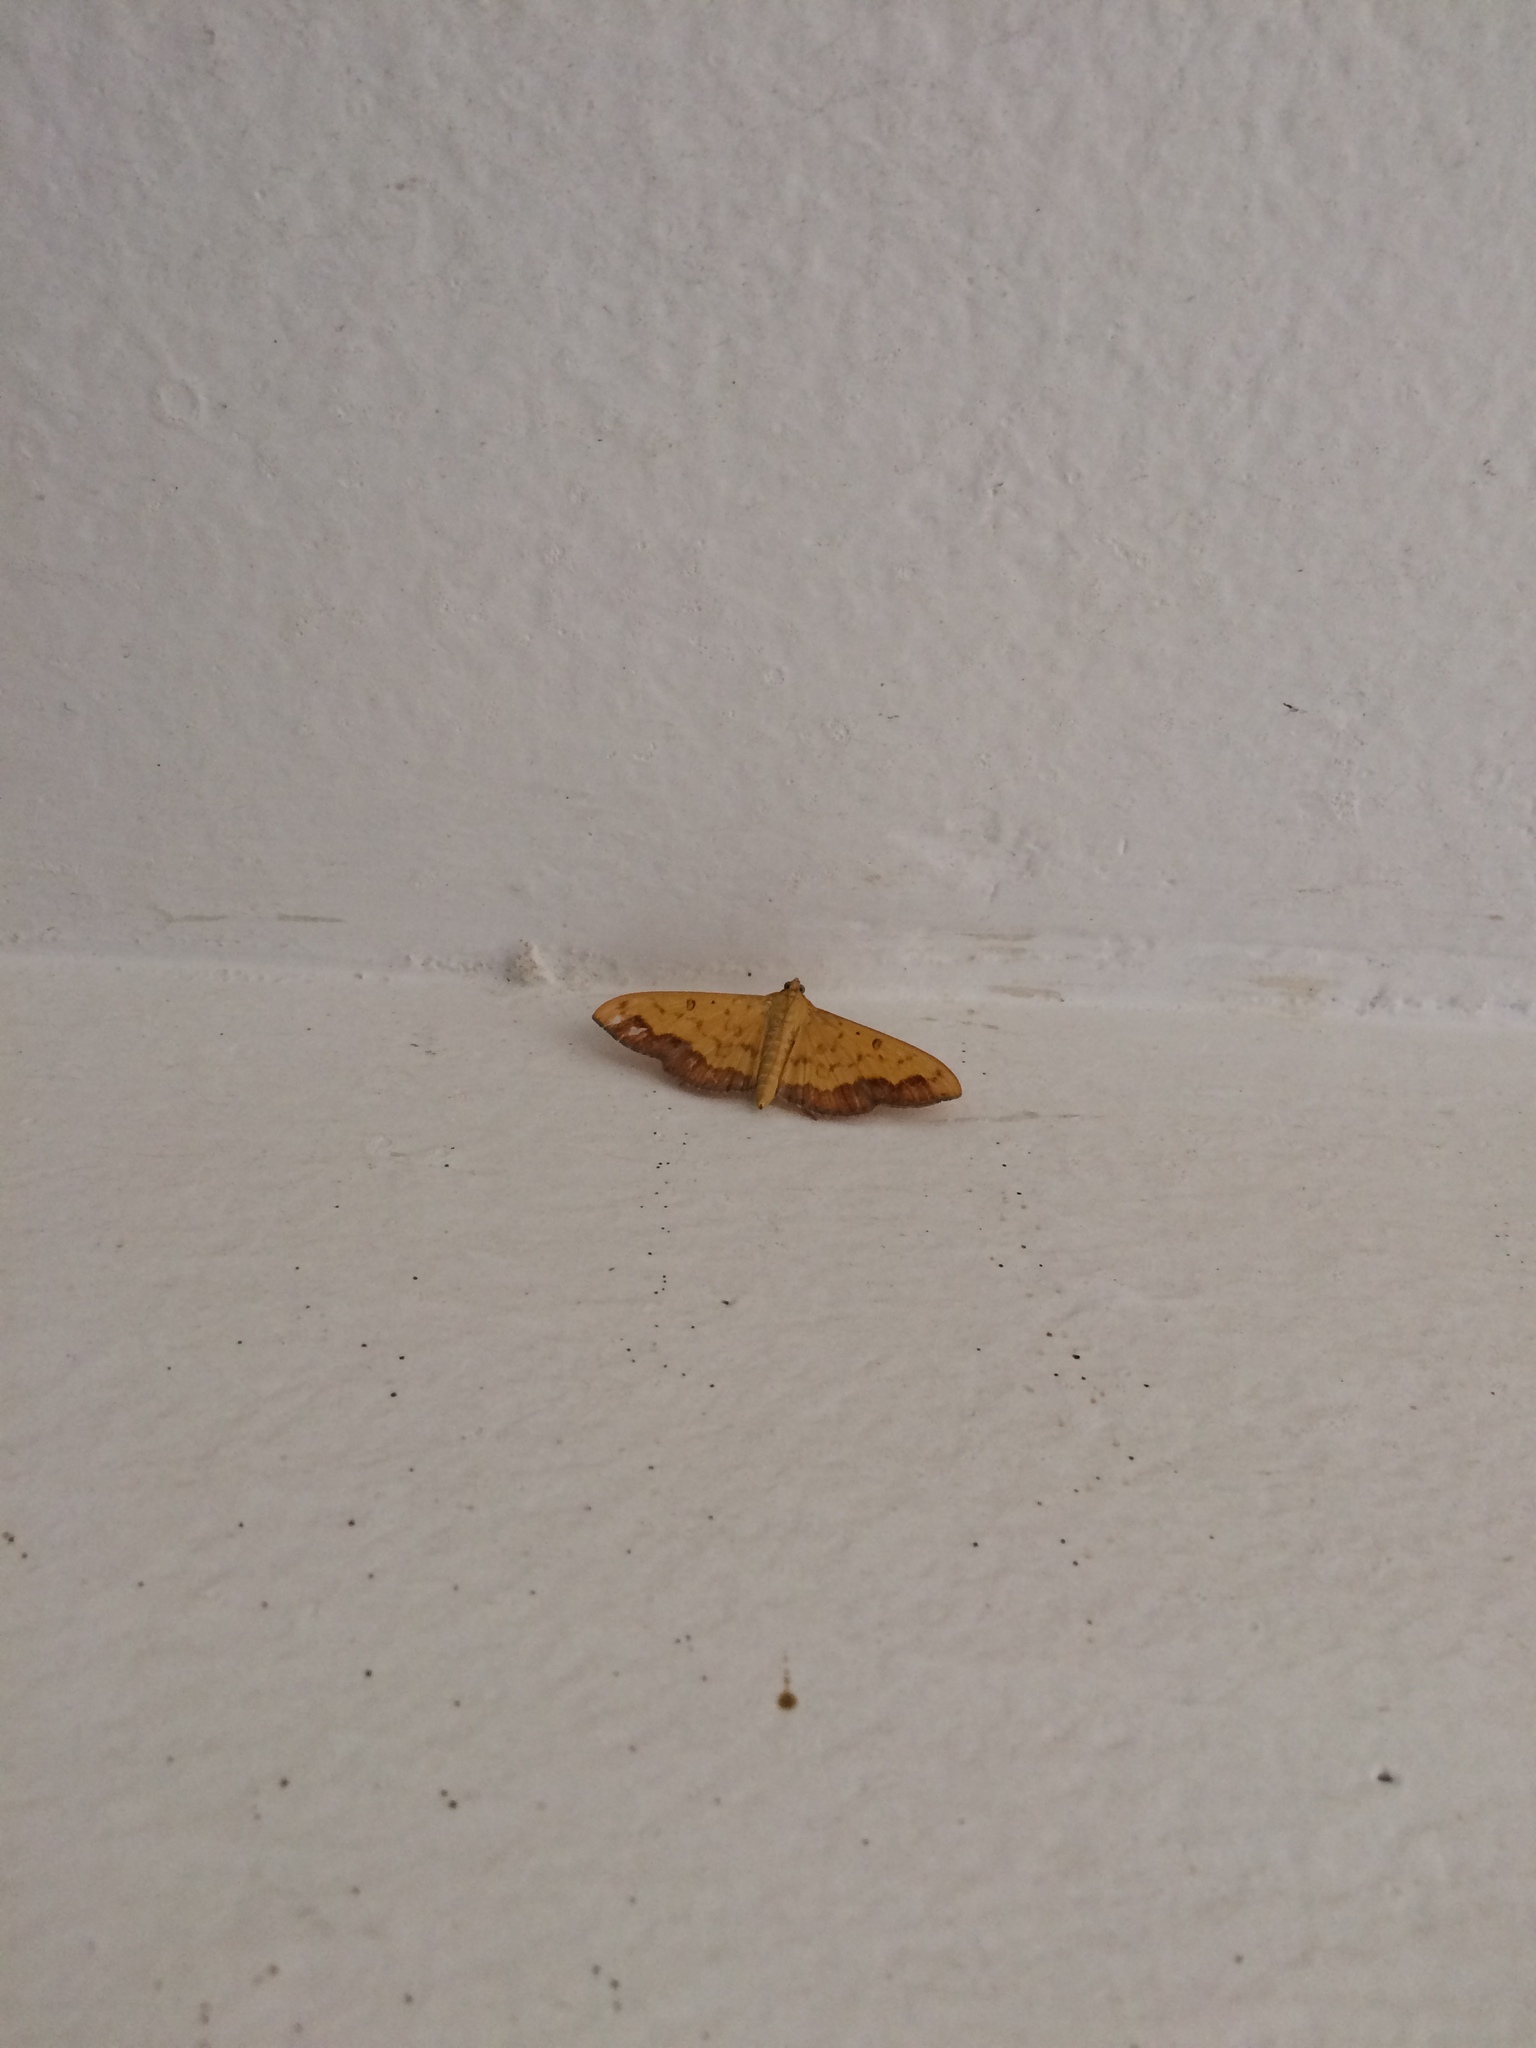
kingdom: Animalia
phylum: Arthropoda
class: Insecta
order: Lepidoptera
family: Crambidae
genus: Botyodes
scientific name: Botyodes asialis
